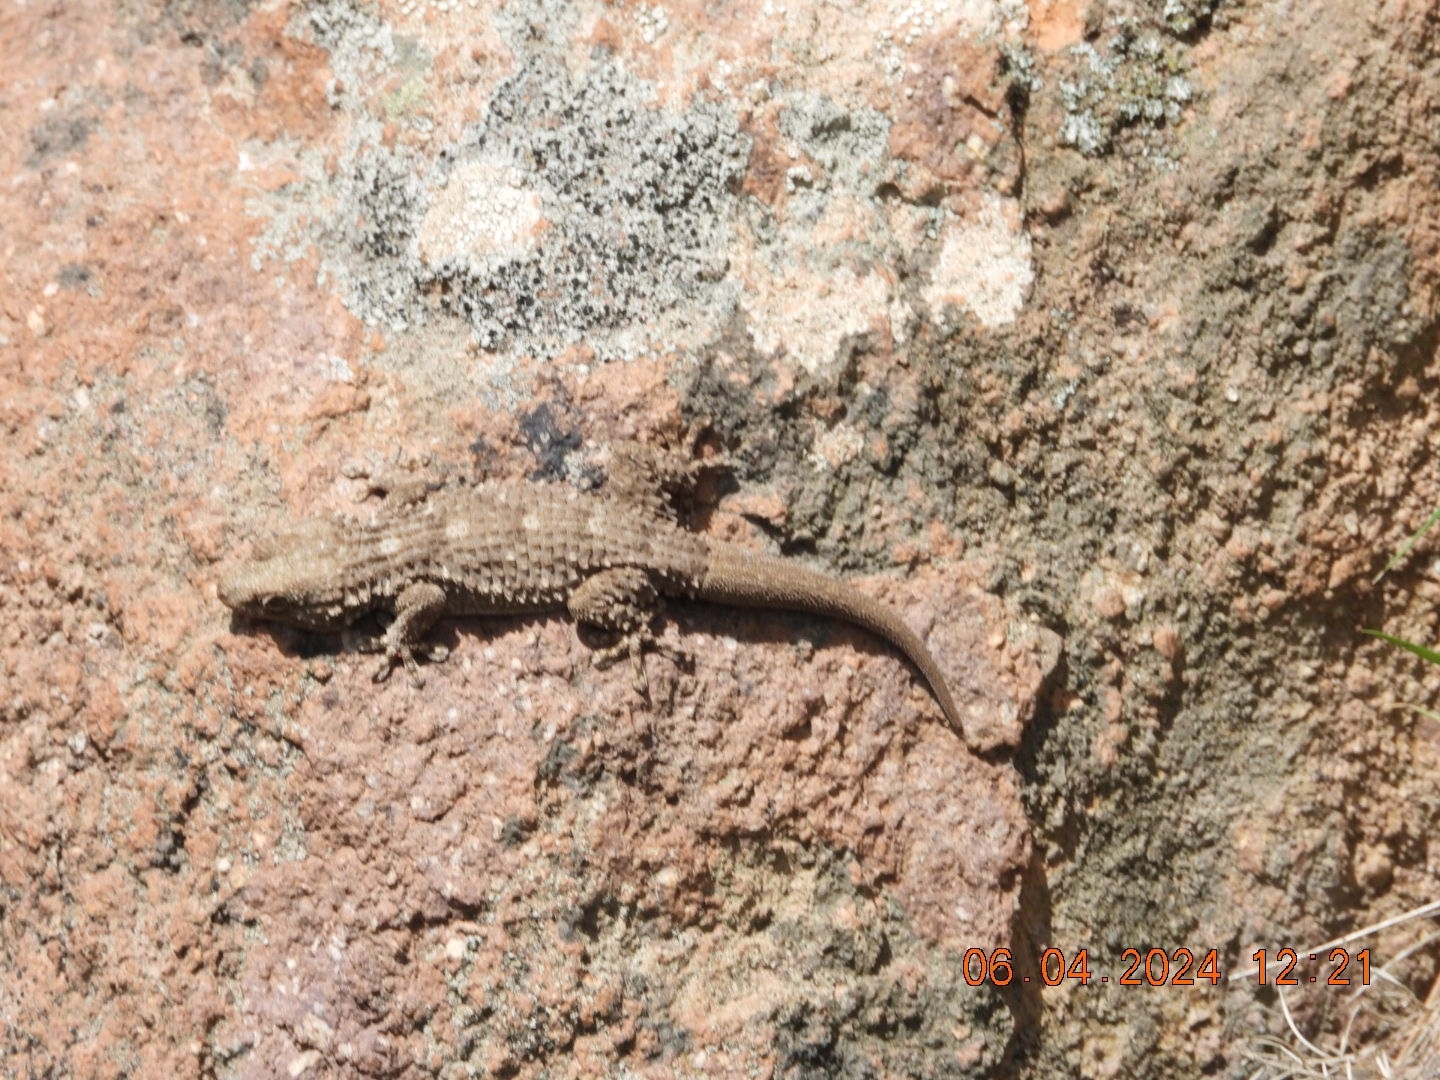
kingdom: Animalia
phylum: Chordata
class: Squamata
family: Phyllodactylidae
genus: Tarentola
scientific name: Tarentola mauritanica
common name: Moorish gecko
